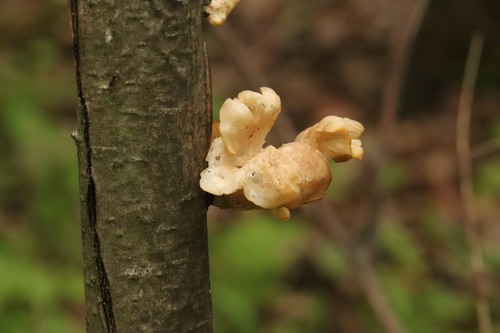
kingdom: Fungi
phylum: Basidiomycota
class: Agaricomycetes
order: Agaricales
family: Pleurotaceae
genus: Pleurotus
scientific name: Pleurotus pulmonarius
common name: Pale oyster
